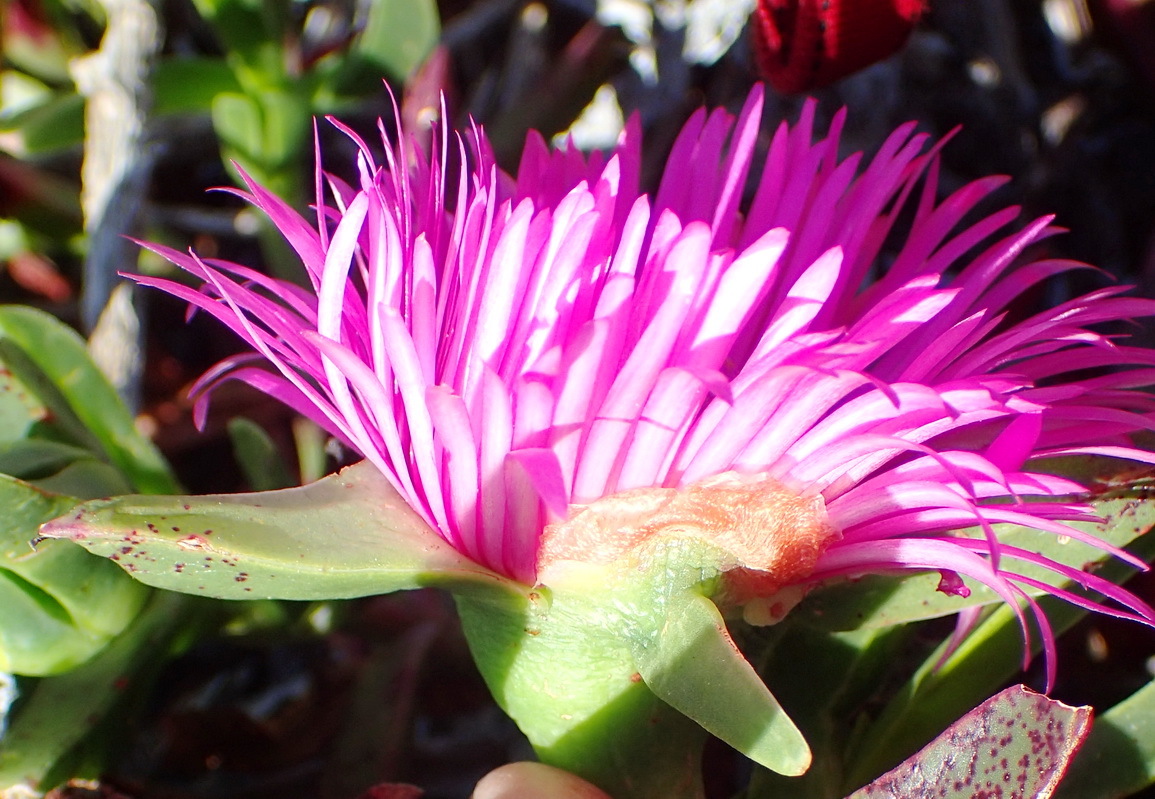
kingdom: Plantae
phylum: Tracheophyta
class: Magnoliopsida
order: Caryophyllales
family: Aizoaceae
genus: Carpobrotus
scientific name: Carpobrotus acinaciformis
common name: Sally-my-handsome
